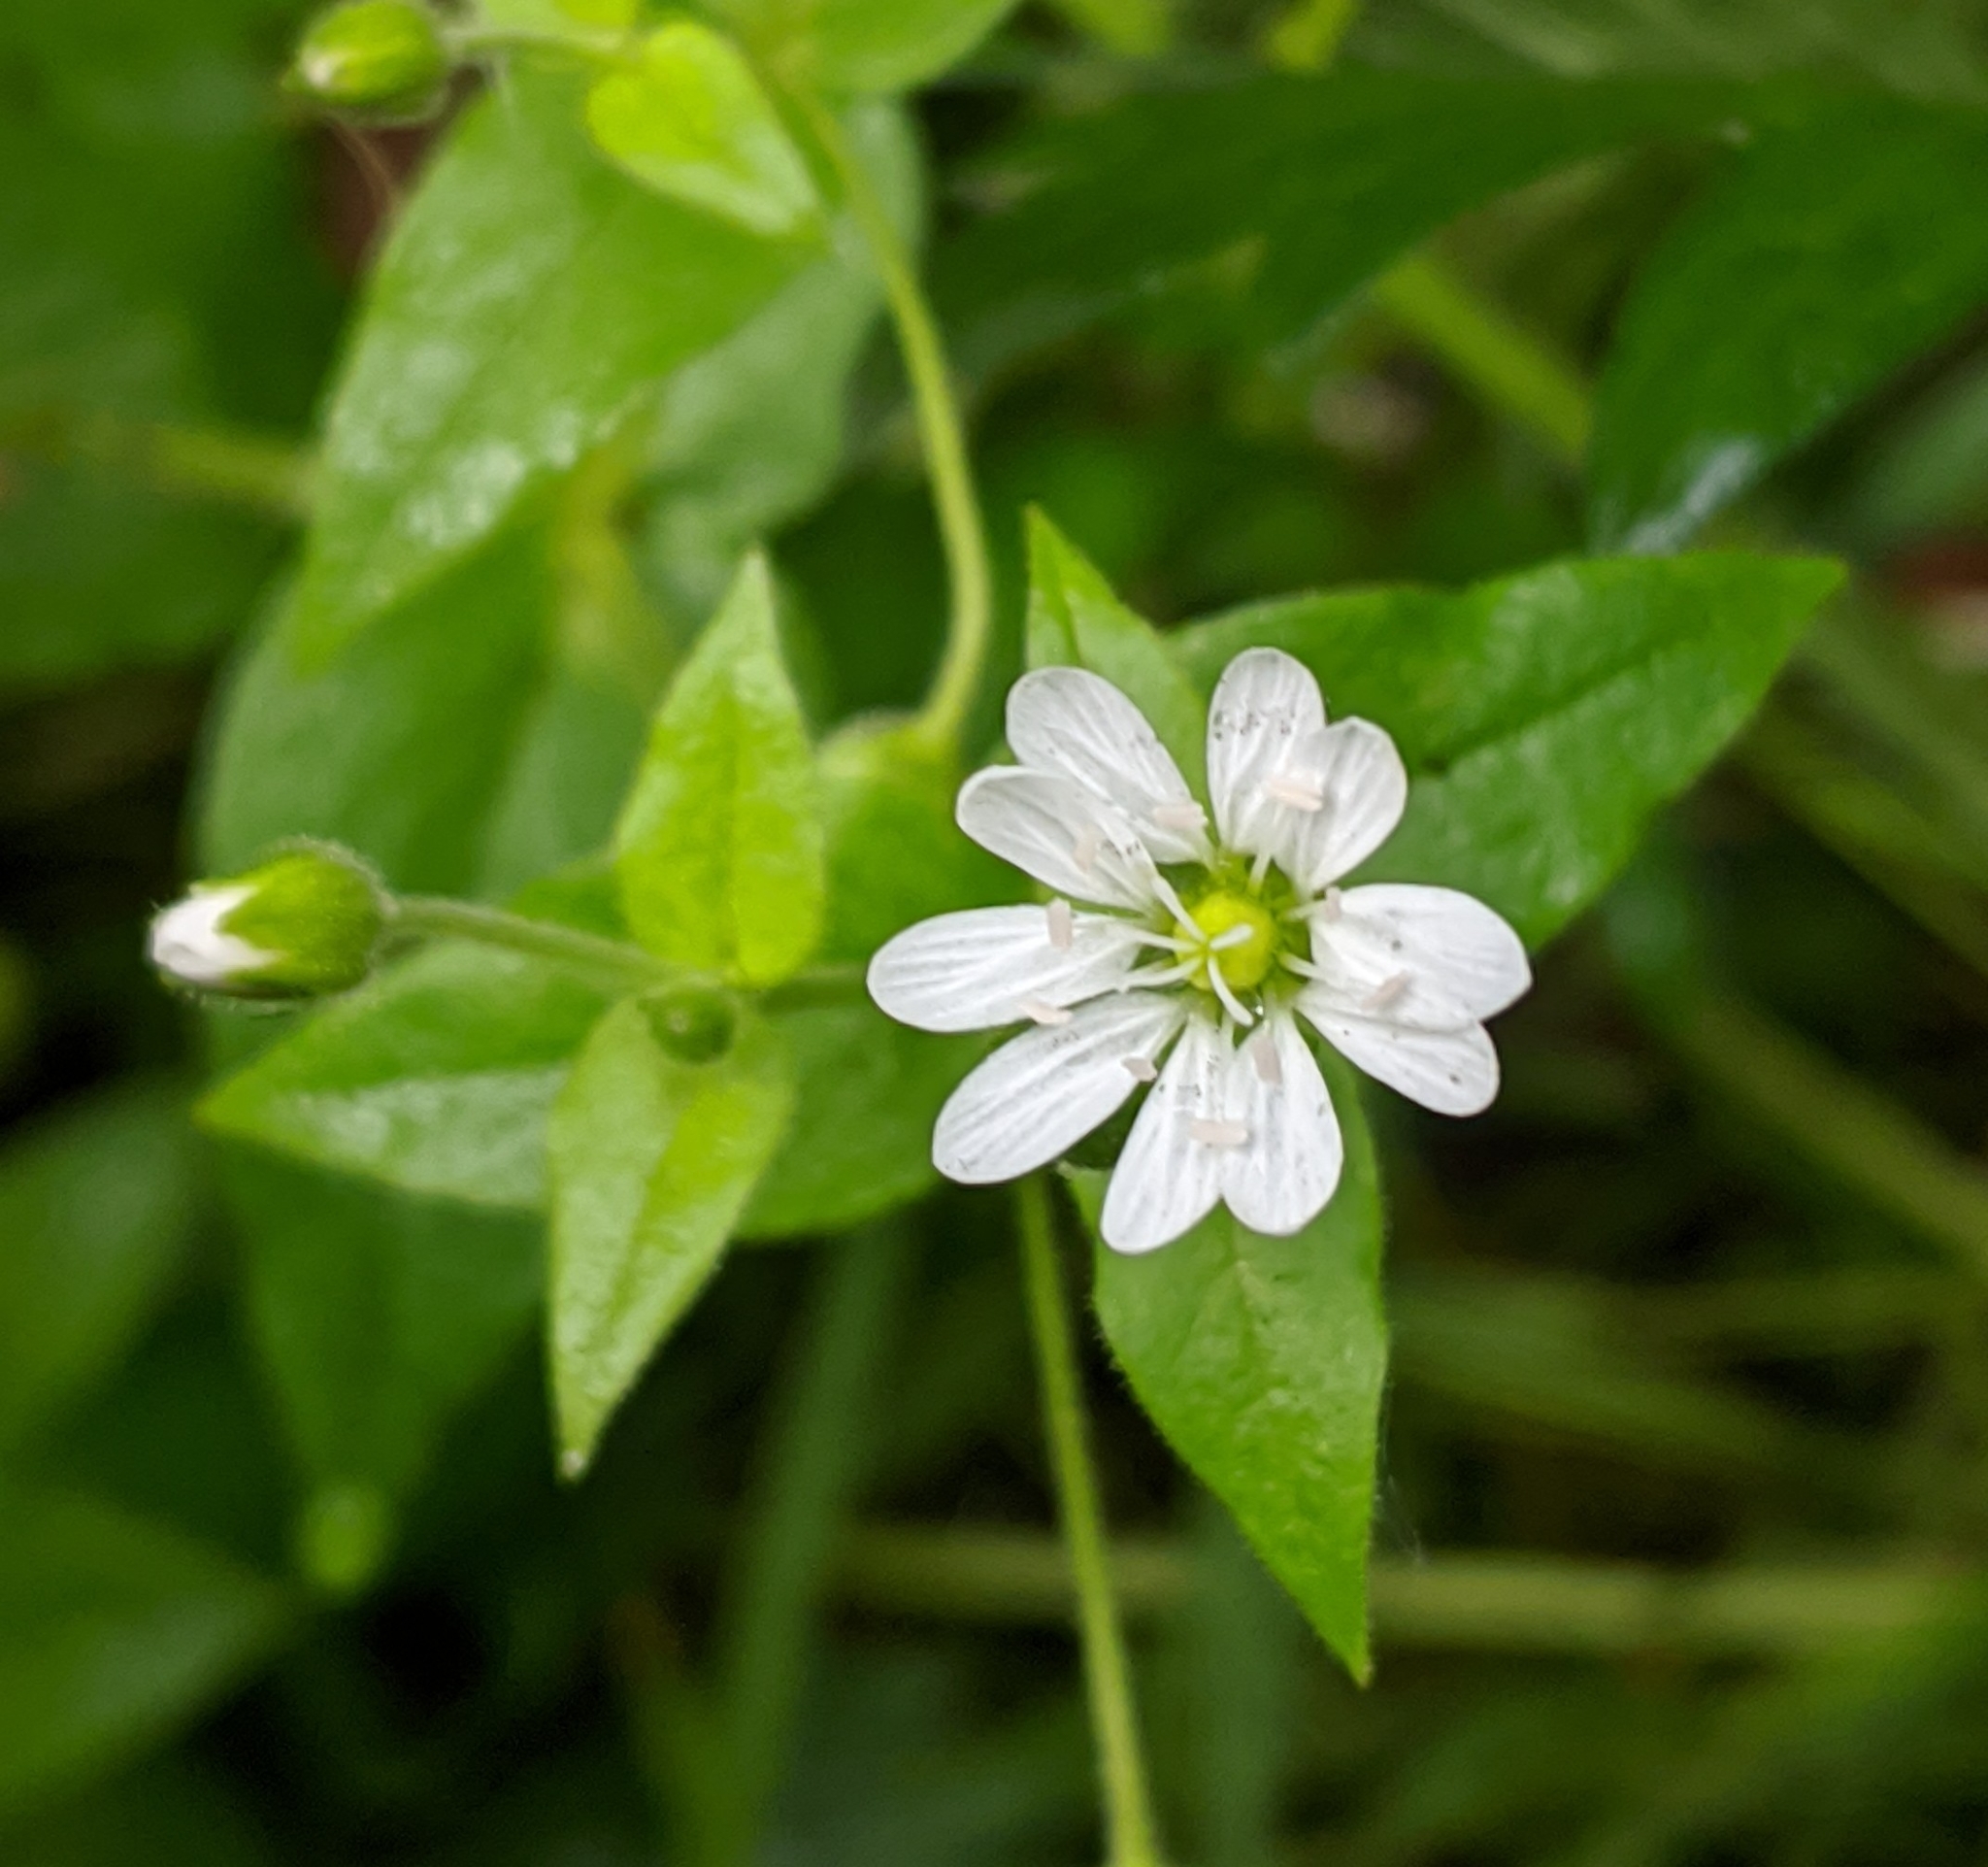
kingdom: Plantae
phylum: Tracheophyta
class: Magnoliopsida
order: Caryophyllales
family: Caryophyllaceae
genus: Stellaria
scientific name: Stellaria aquatica
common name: Water chickweed
